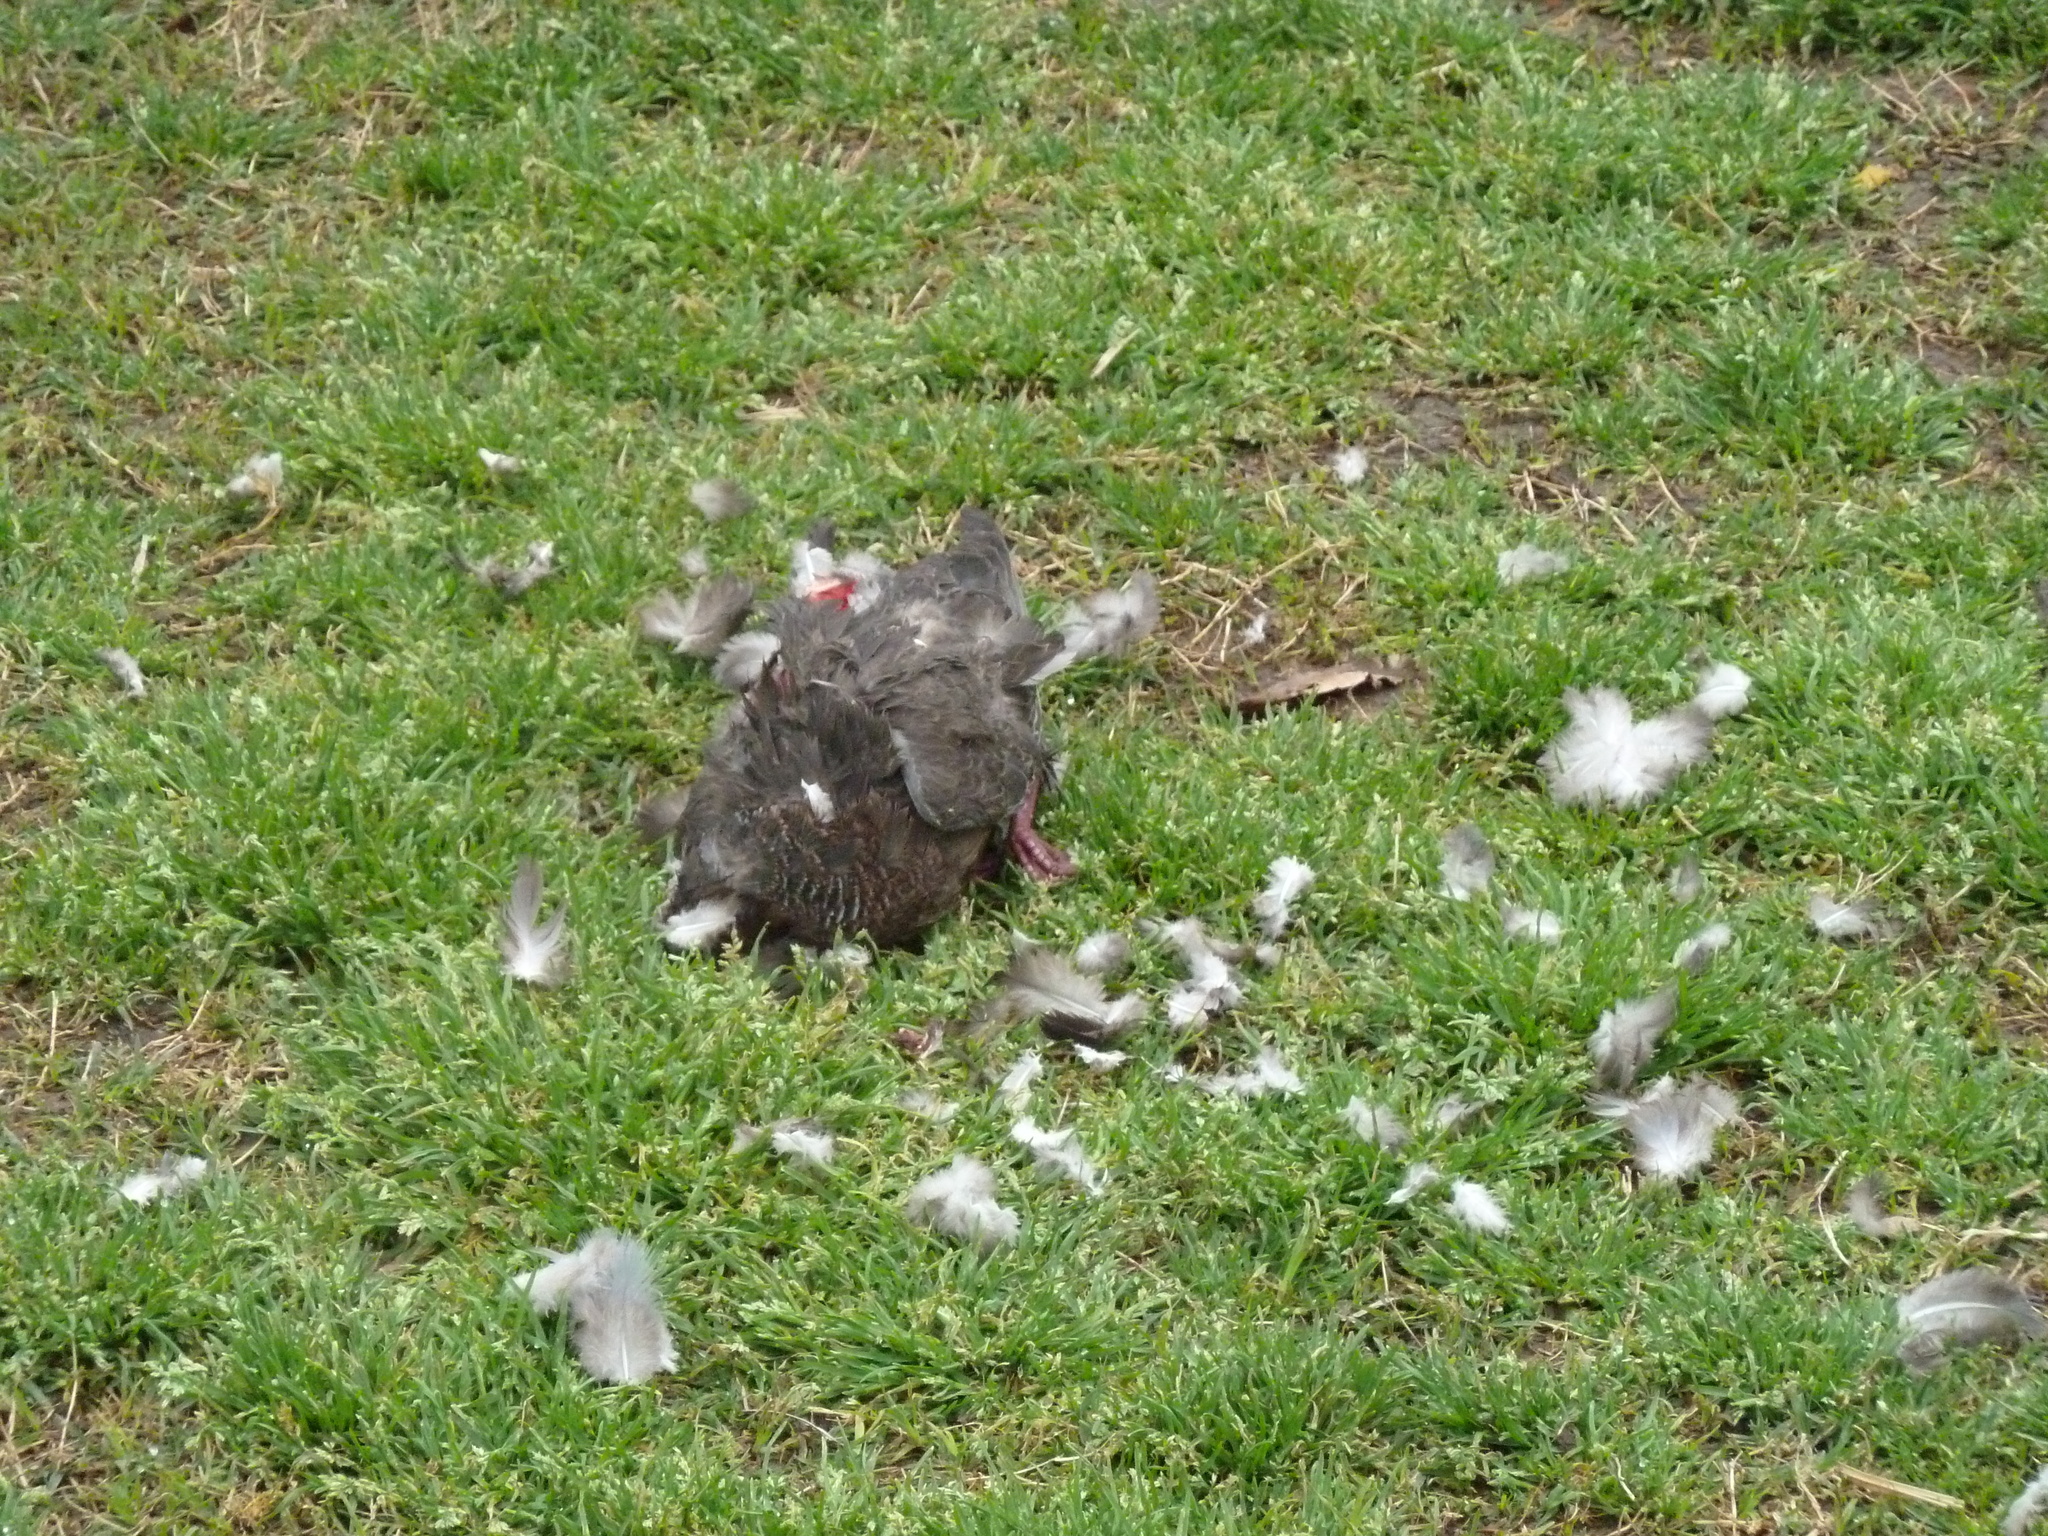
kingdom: Animalia
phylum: Chordata
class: Aves
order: Columbiformes
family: Columbidae
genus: Patagioenas
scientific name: Patagioenas picazuro
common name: Picazuro pigeon
